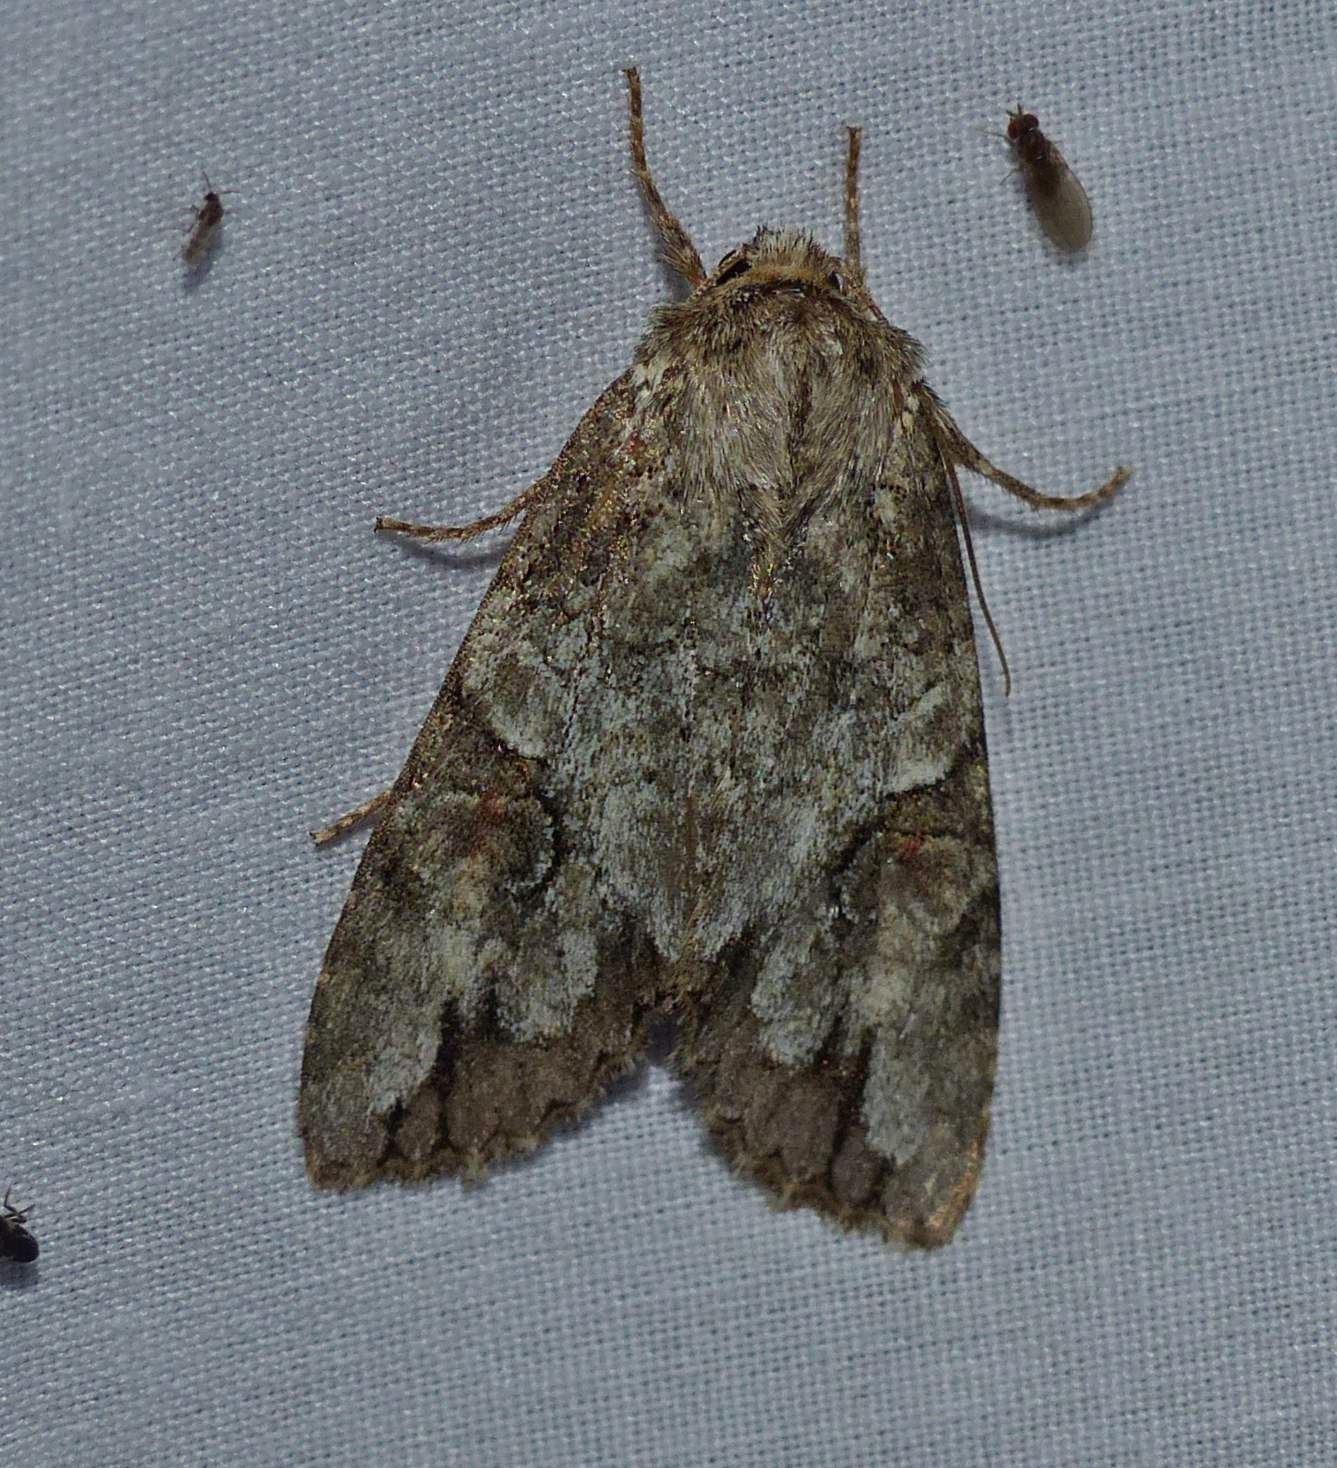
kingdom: Animalia
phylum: Arthropoda
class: Insecta
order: Lepidoptera
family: Noctuidae
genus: Achatia
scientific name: Achatia latex
